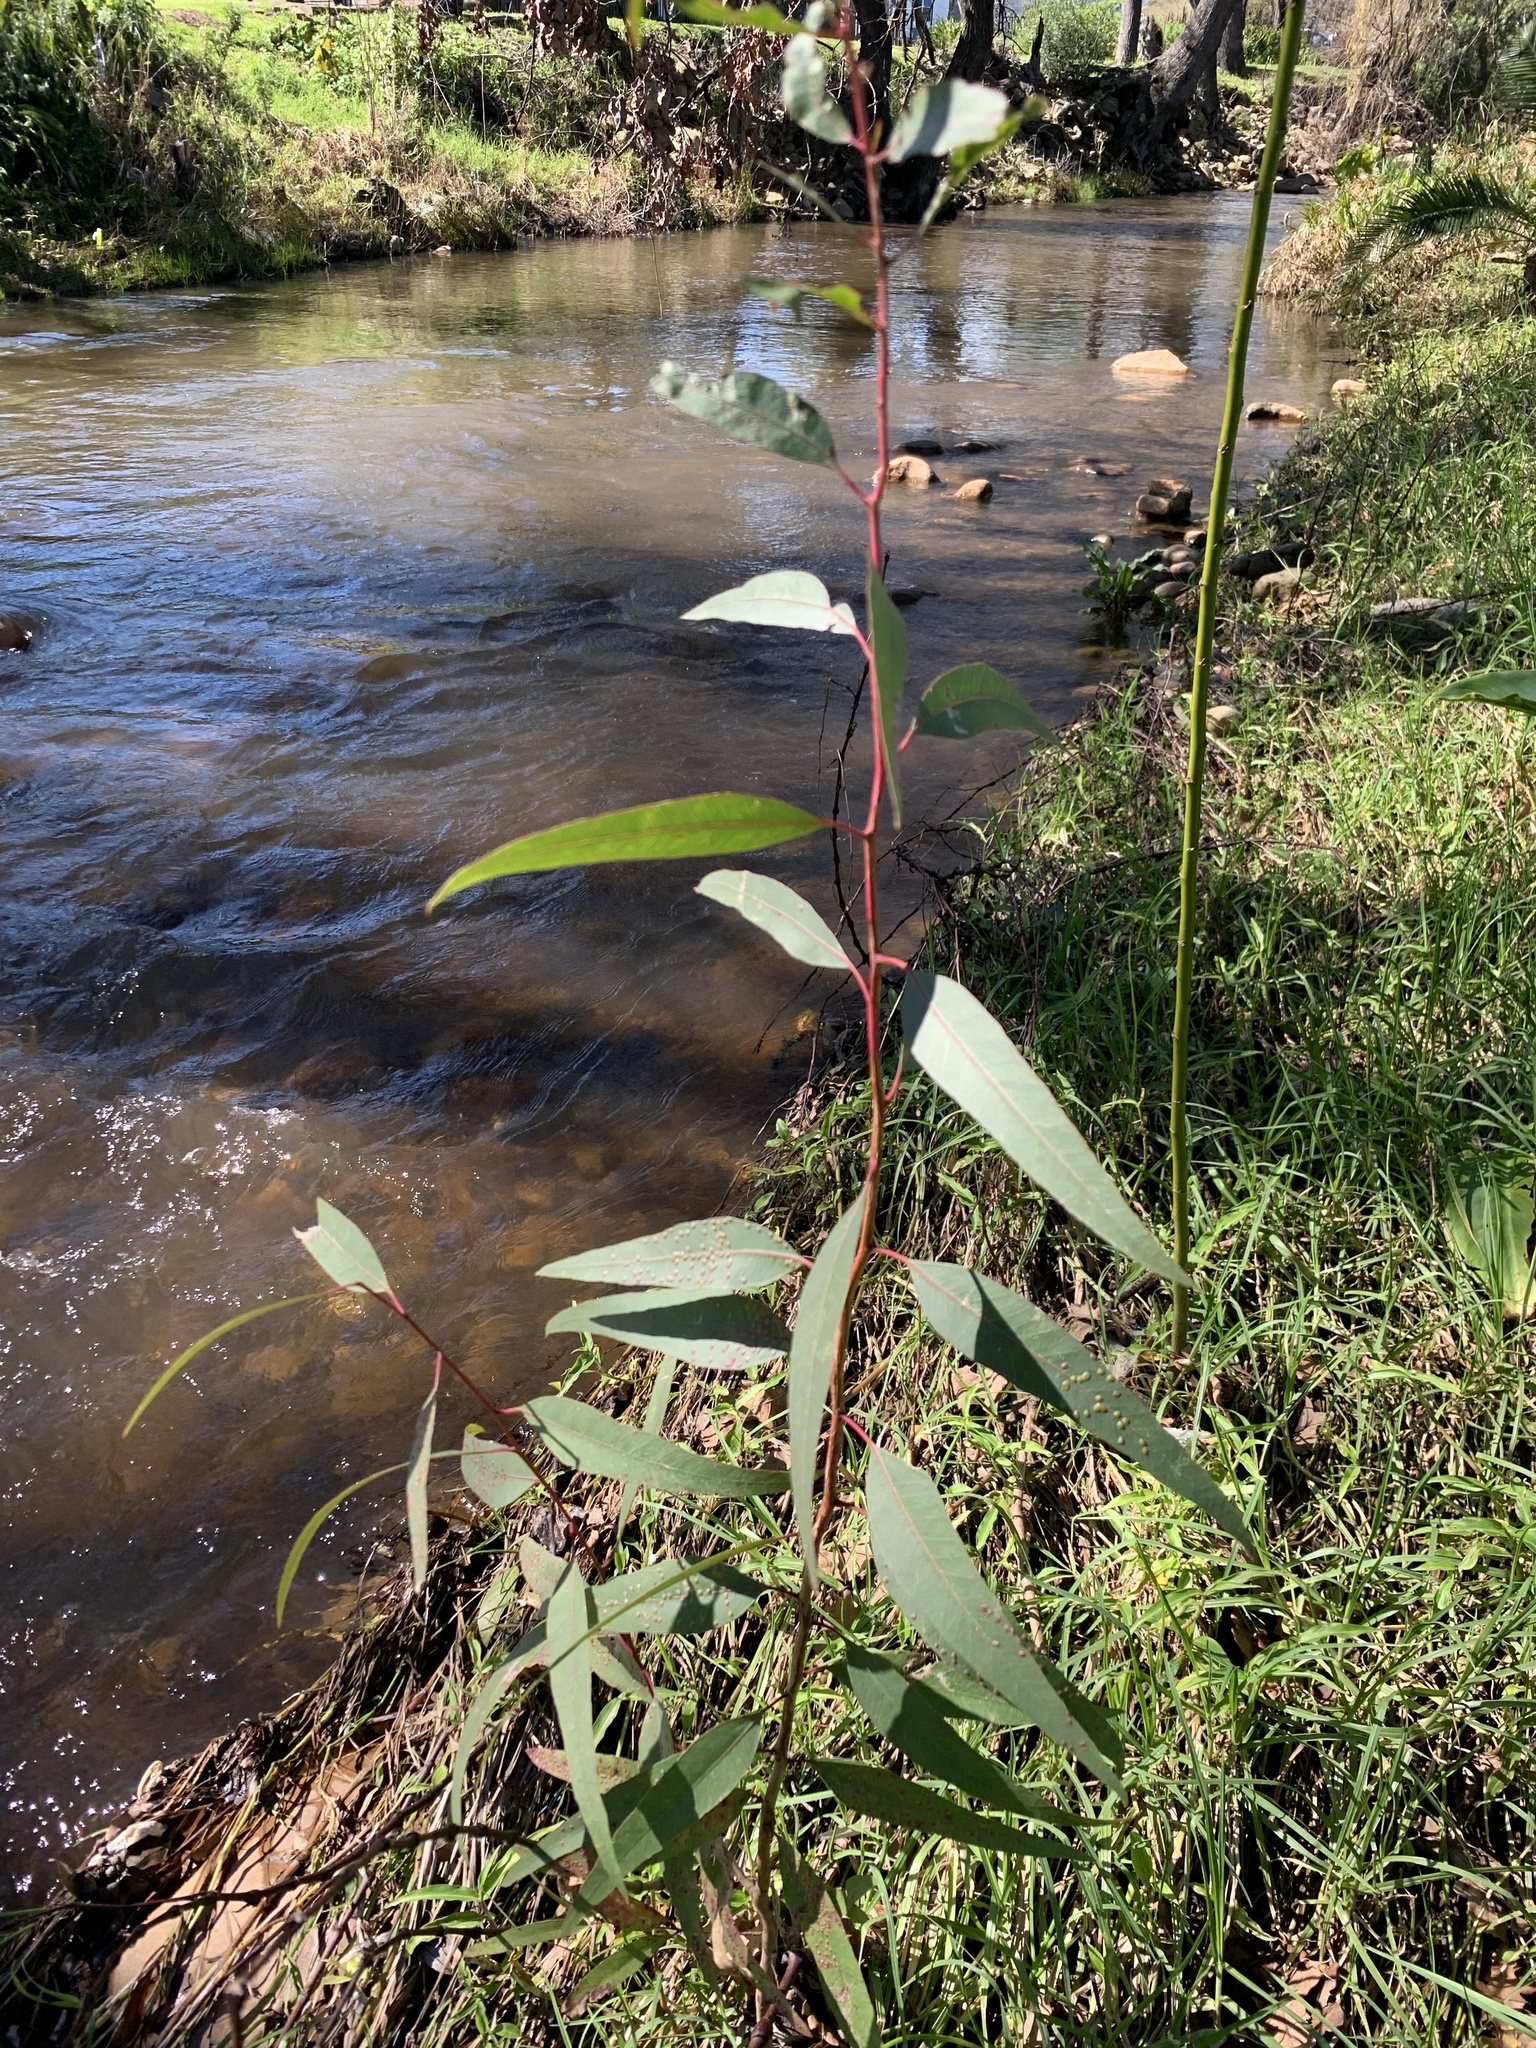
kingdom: Plantae
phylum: Tracheophyta
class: Magnoliopsida
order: Myrtales
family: Myrtaceae
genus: Eucalyptus
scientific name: Eucalyptus camaldulensis
